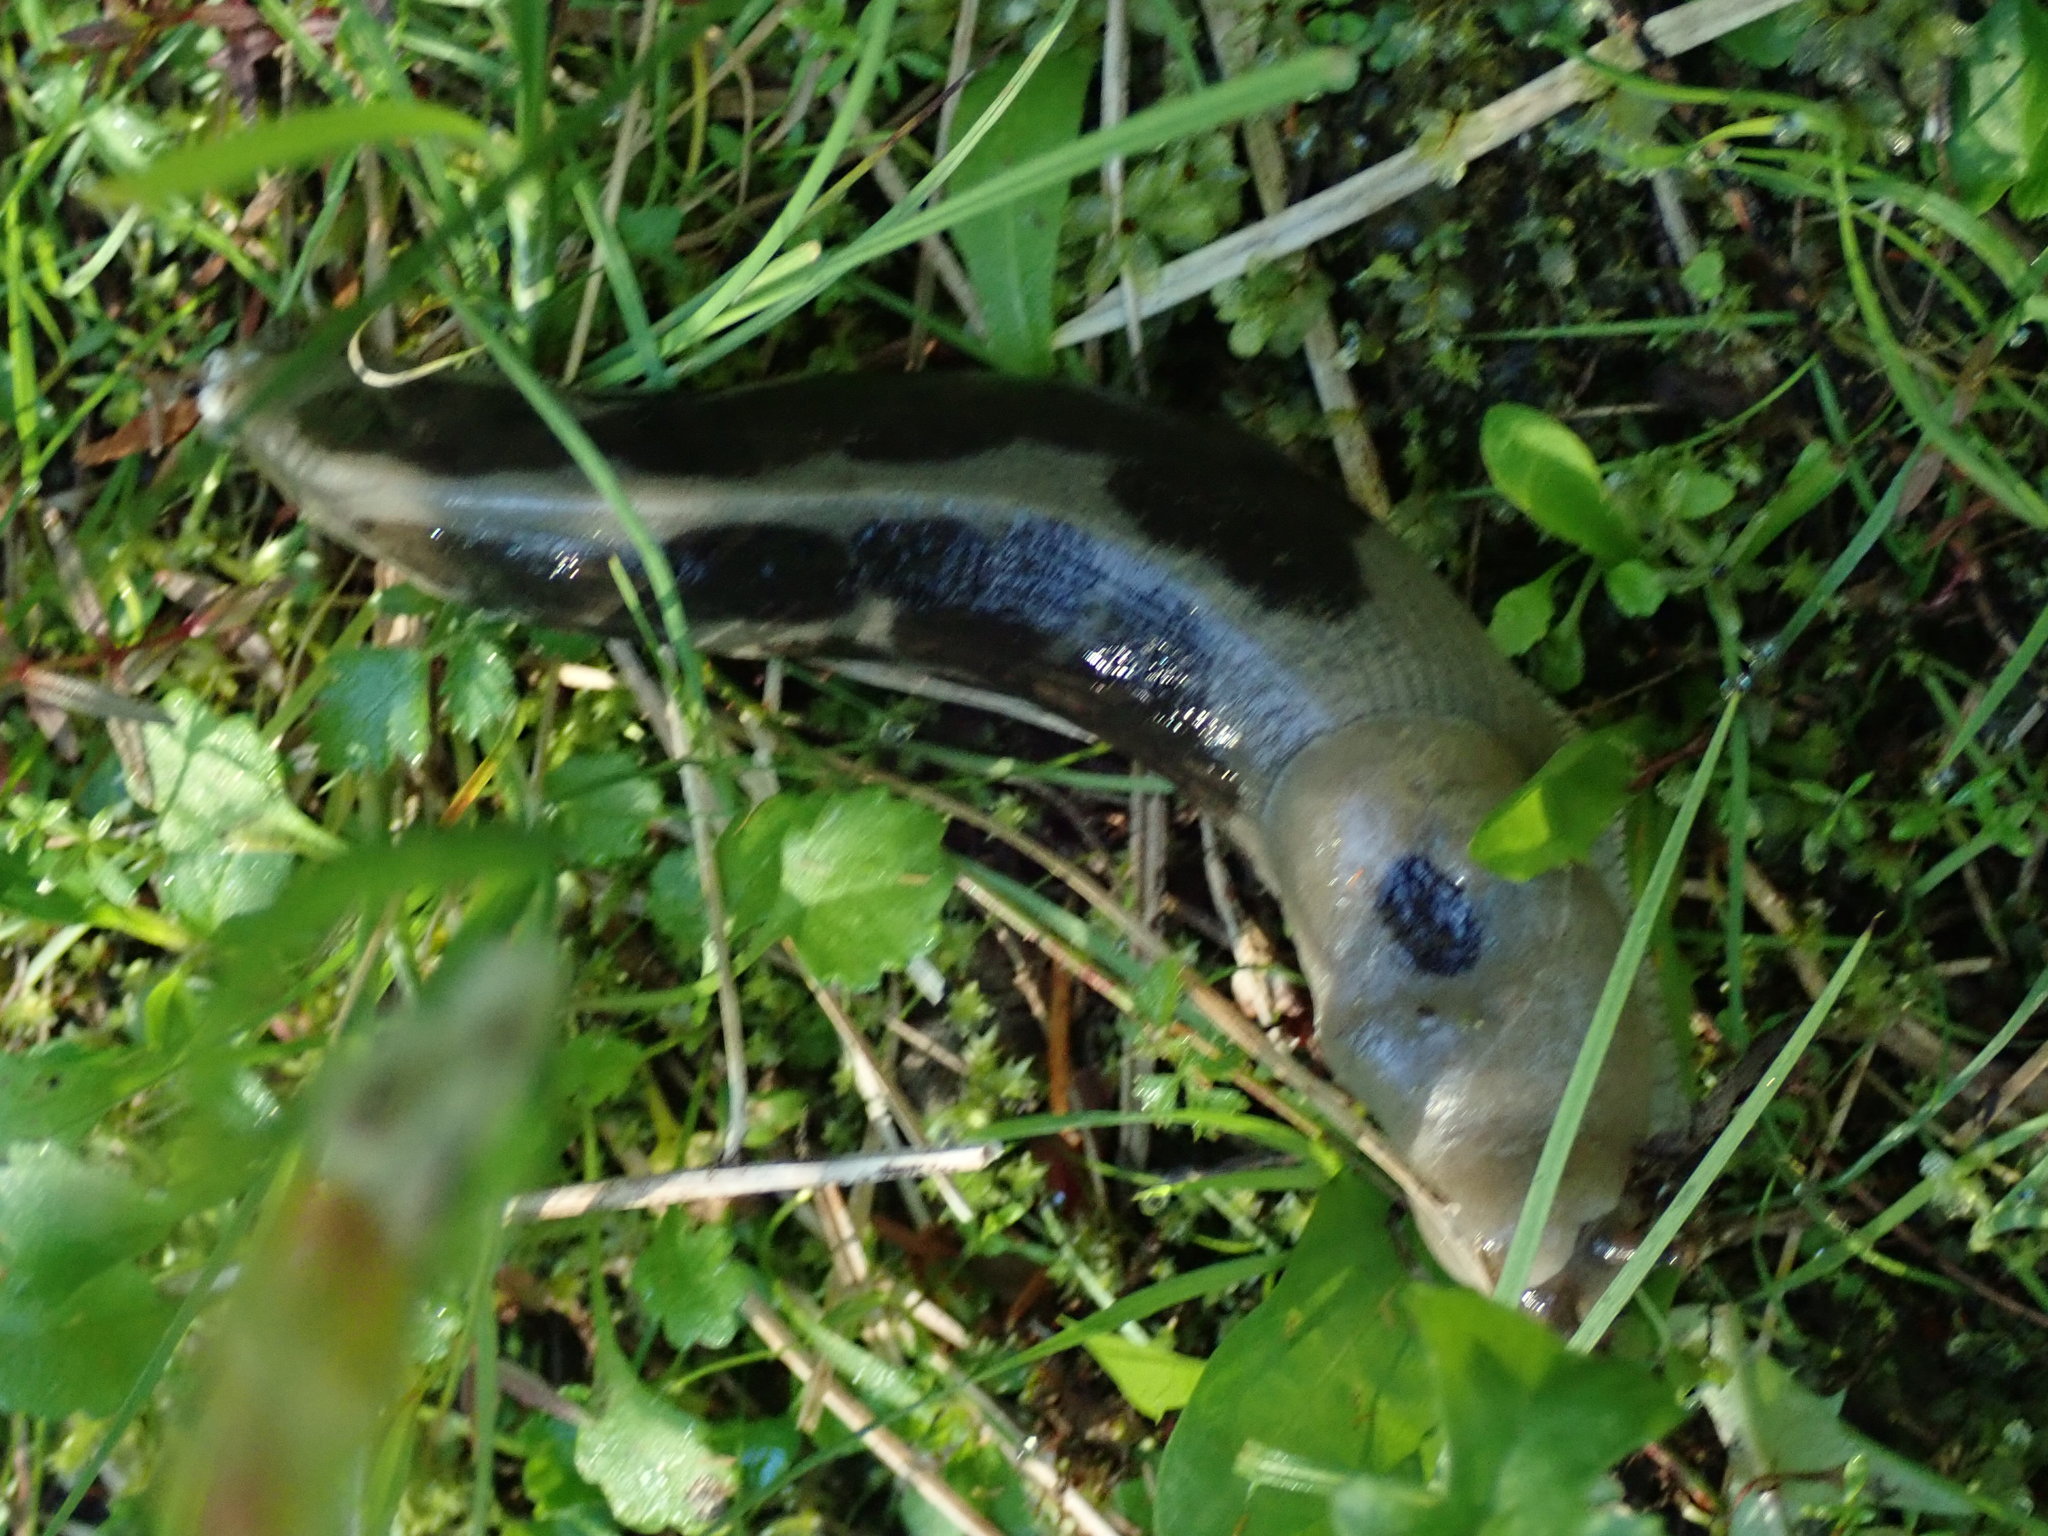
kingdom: Animalia
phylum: Mollusca
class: Gastropoda
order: Stylommatophora
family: Ariolimacidae
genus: Ariolimax
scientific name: Ariolimax columbianus
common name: Pacific banana slug
